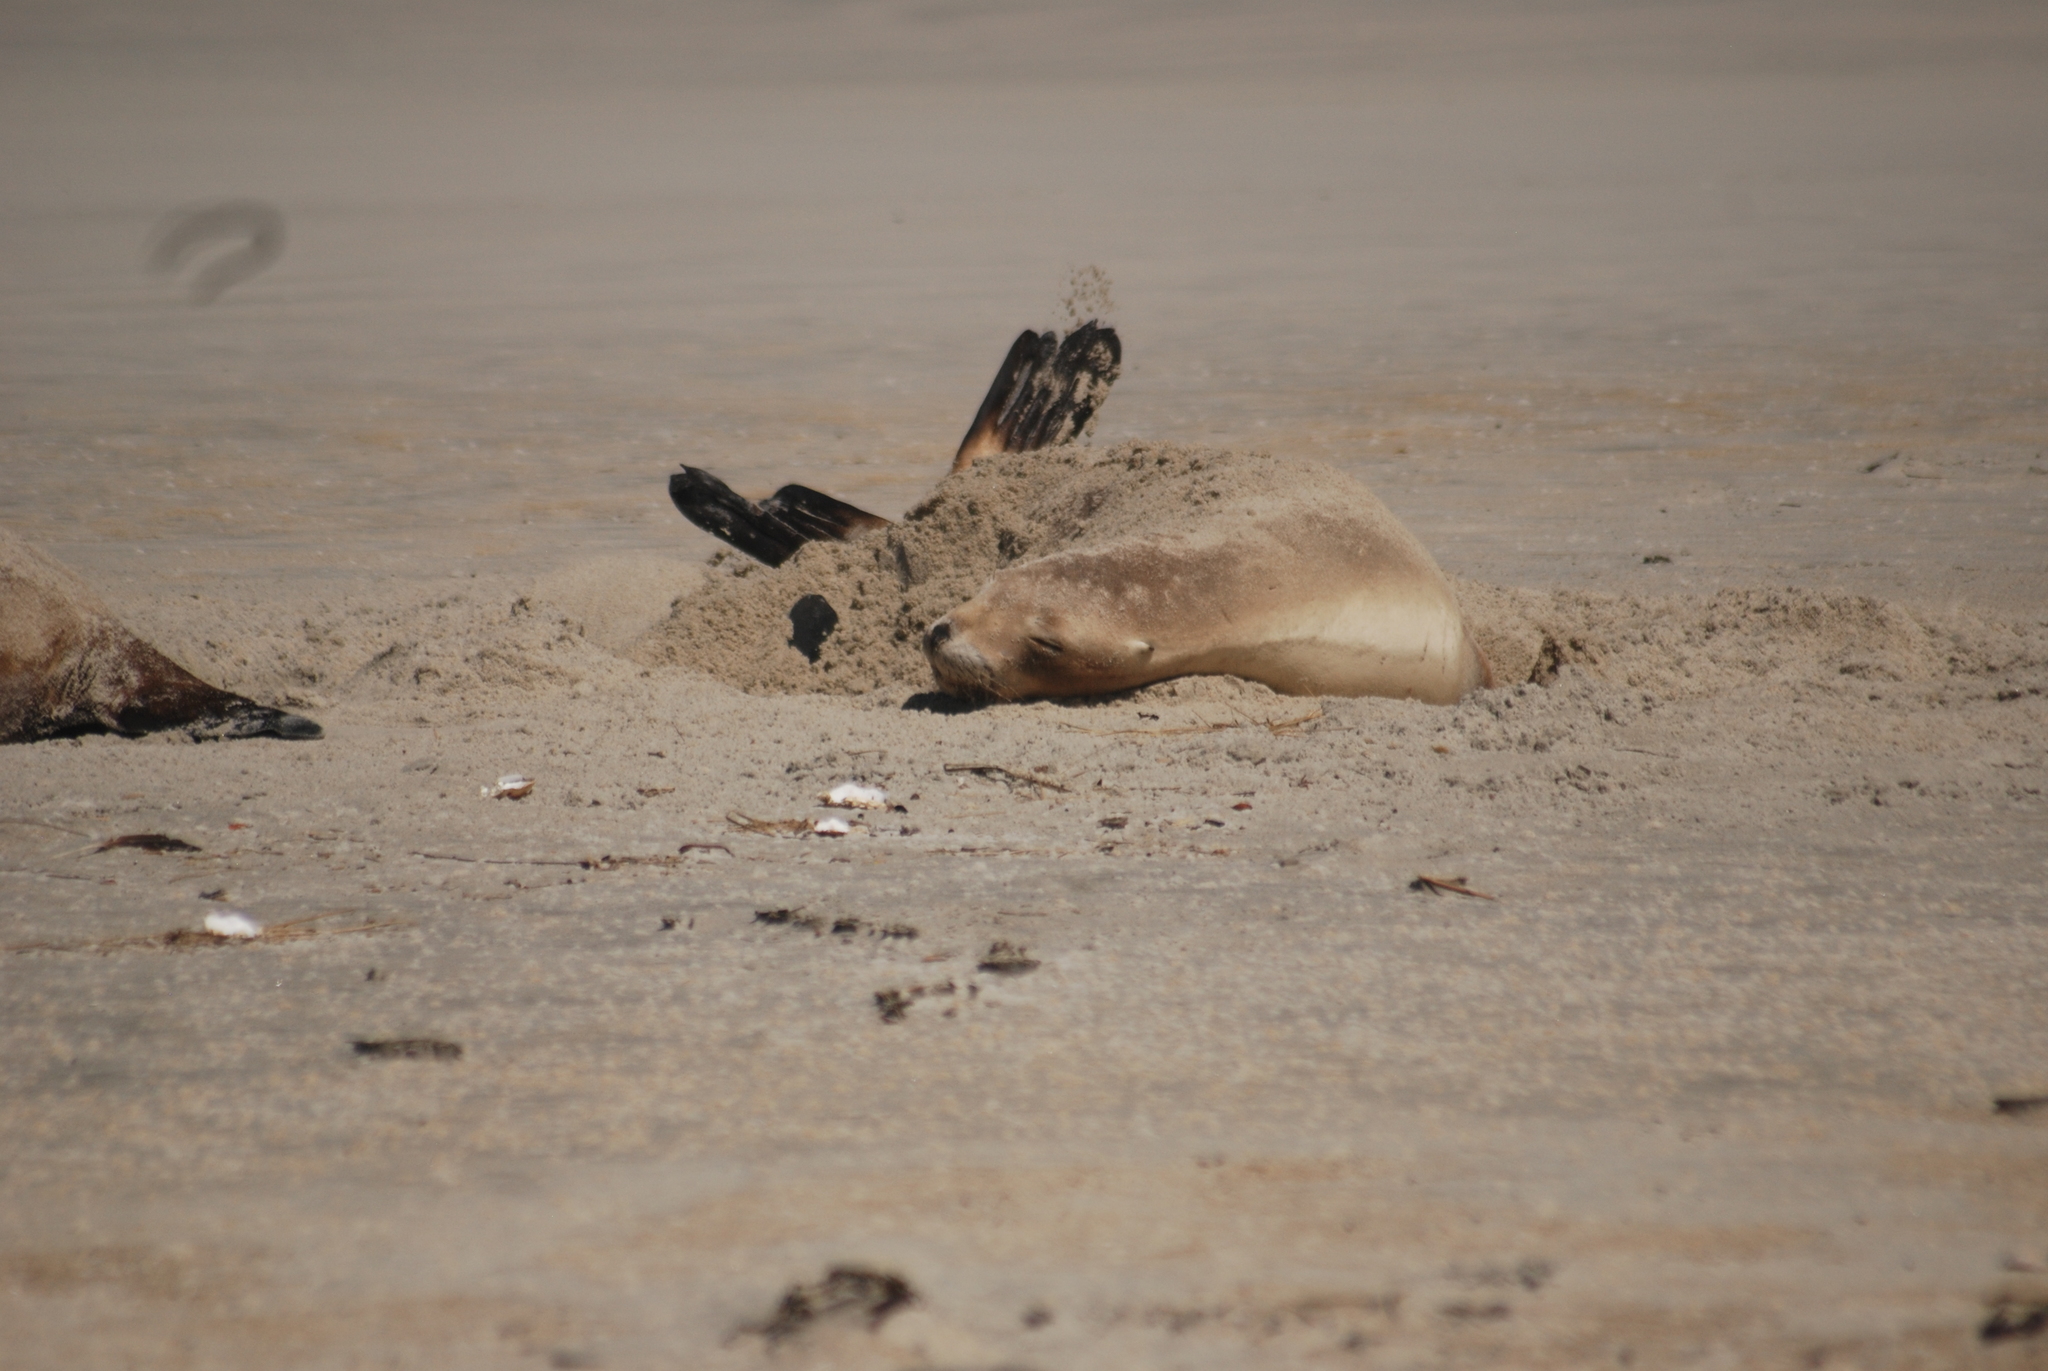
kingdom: Animalia
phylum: Chordata
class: Mammalia
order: Carnivora
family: Otariidae
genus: Phocarctos
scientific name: Phocarctos hookeri
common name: New zealand sea lion
